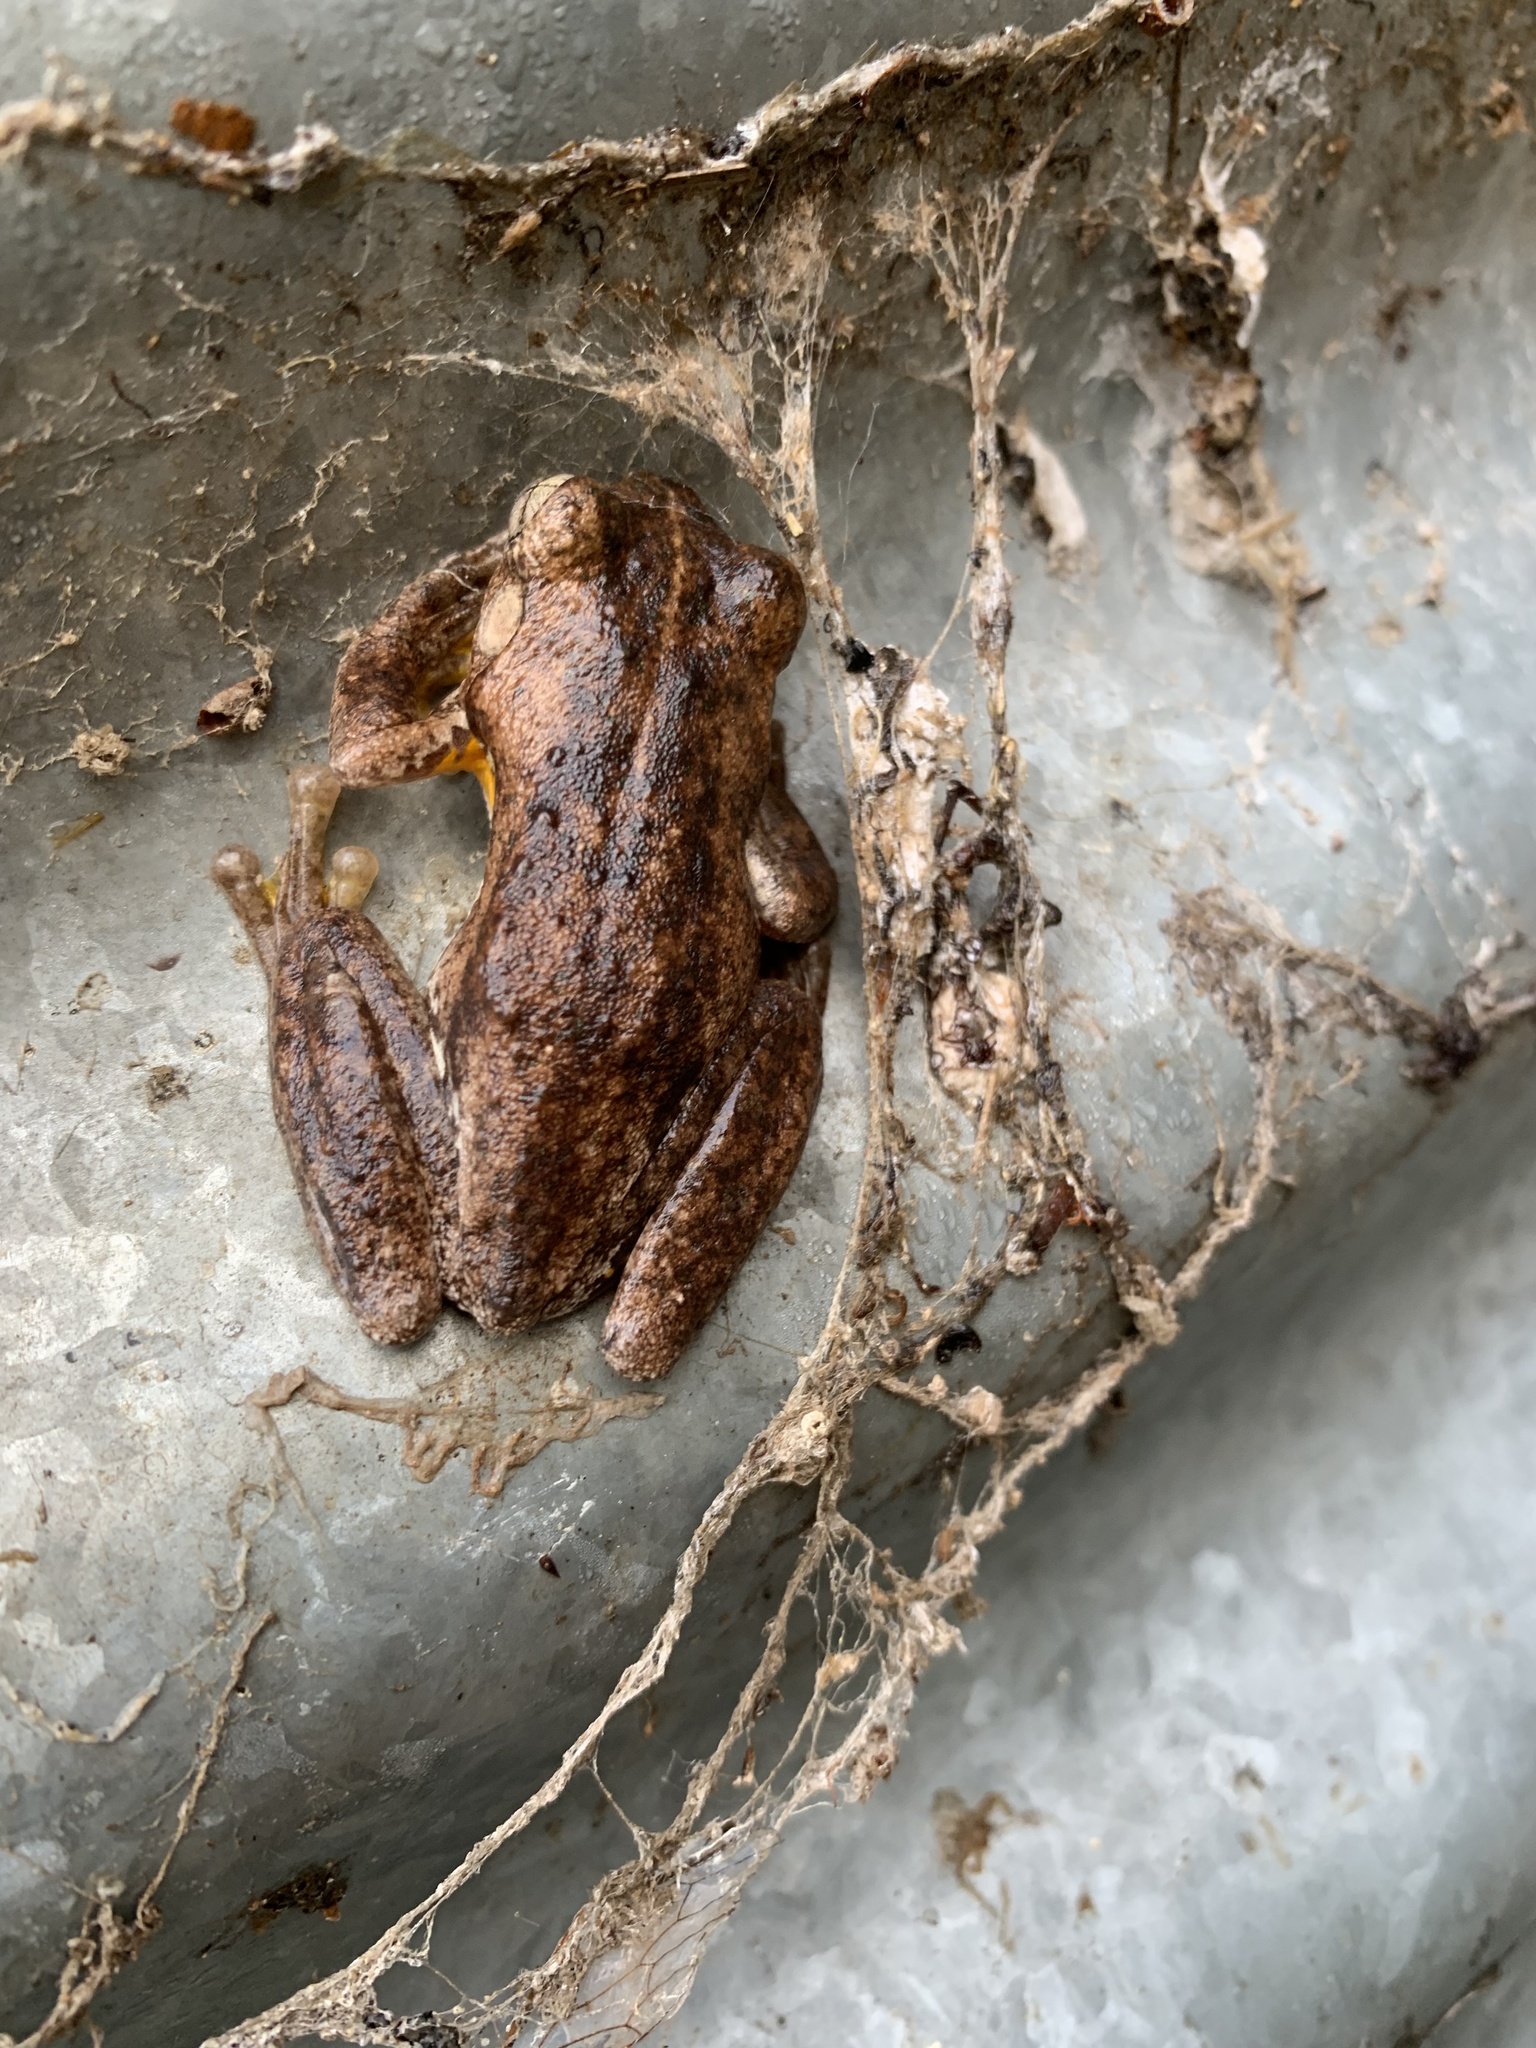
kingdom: Animalia
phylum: Chordata
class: Amphibia
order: Anura
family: Pelodryadidae
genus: Litoria
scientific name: Litoria peronii
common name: Emerald spotted treefrog
